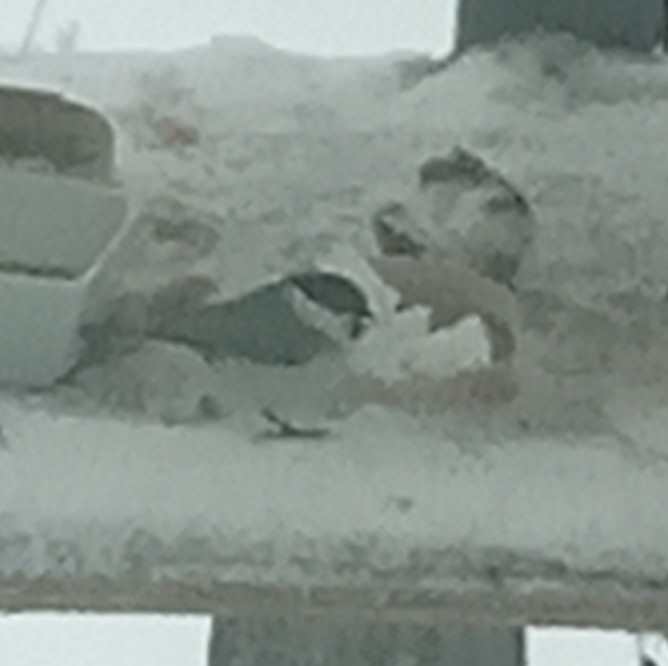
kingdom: Animalia
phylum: Chordata
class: Aves
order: Passeriformes
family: Paridae
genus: Poecile
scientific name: Poecile palustris
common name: Marsh tit
